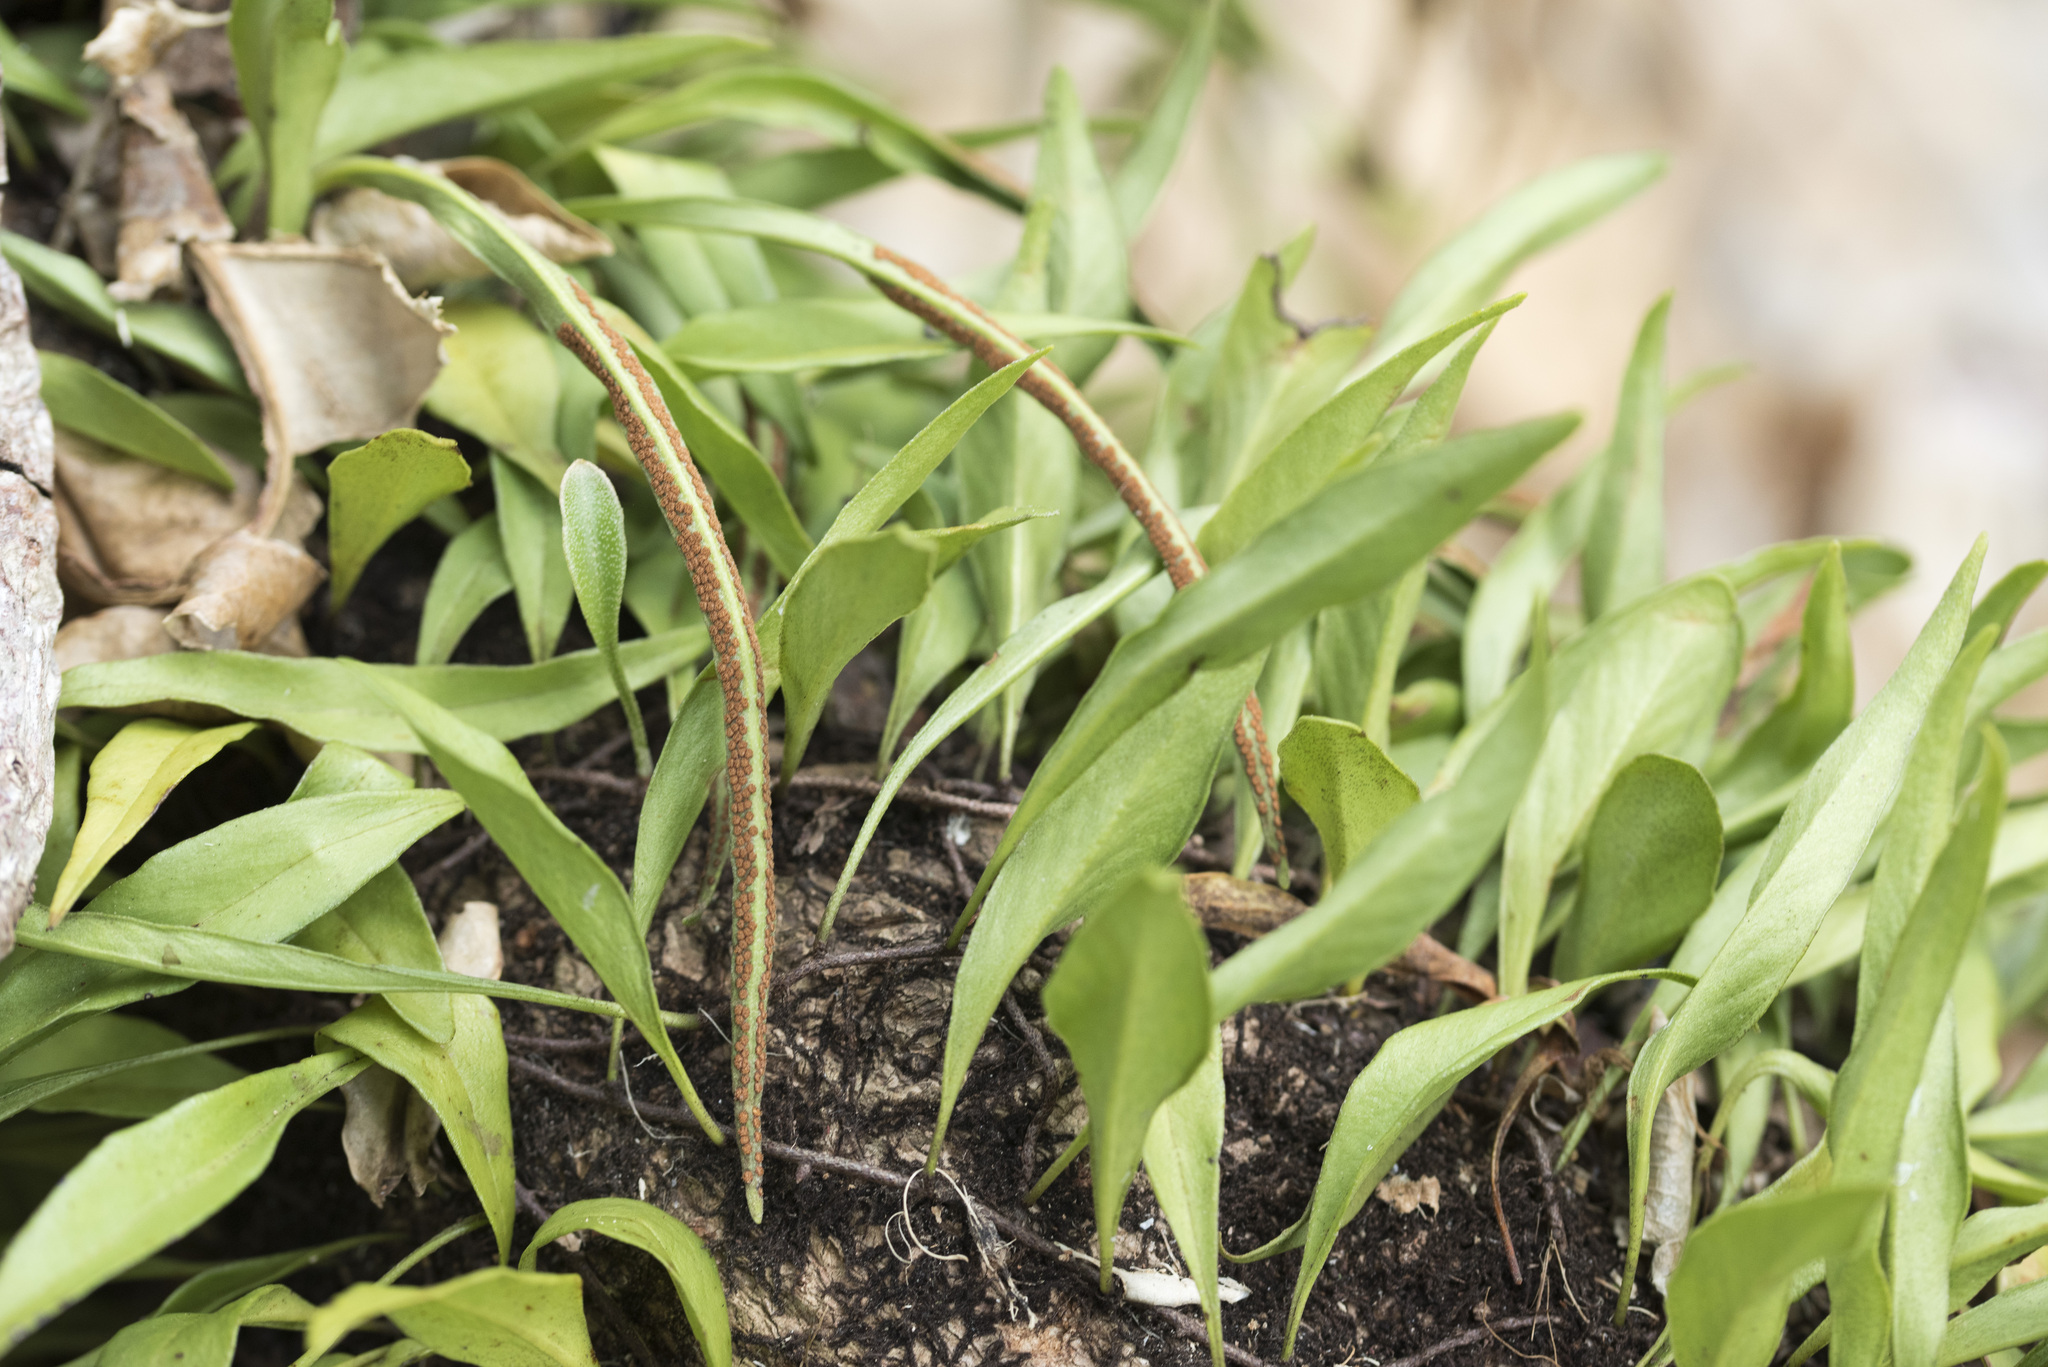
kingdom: Plantae
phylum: Tracheophyta
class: Polypodiopsida
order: Polypodiales
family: Polypodiaceae
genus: Pyrrosia
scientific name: Pyrrosia lanceolata
